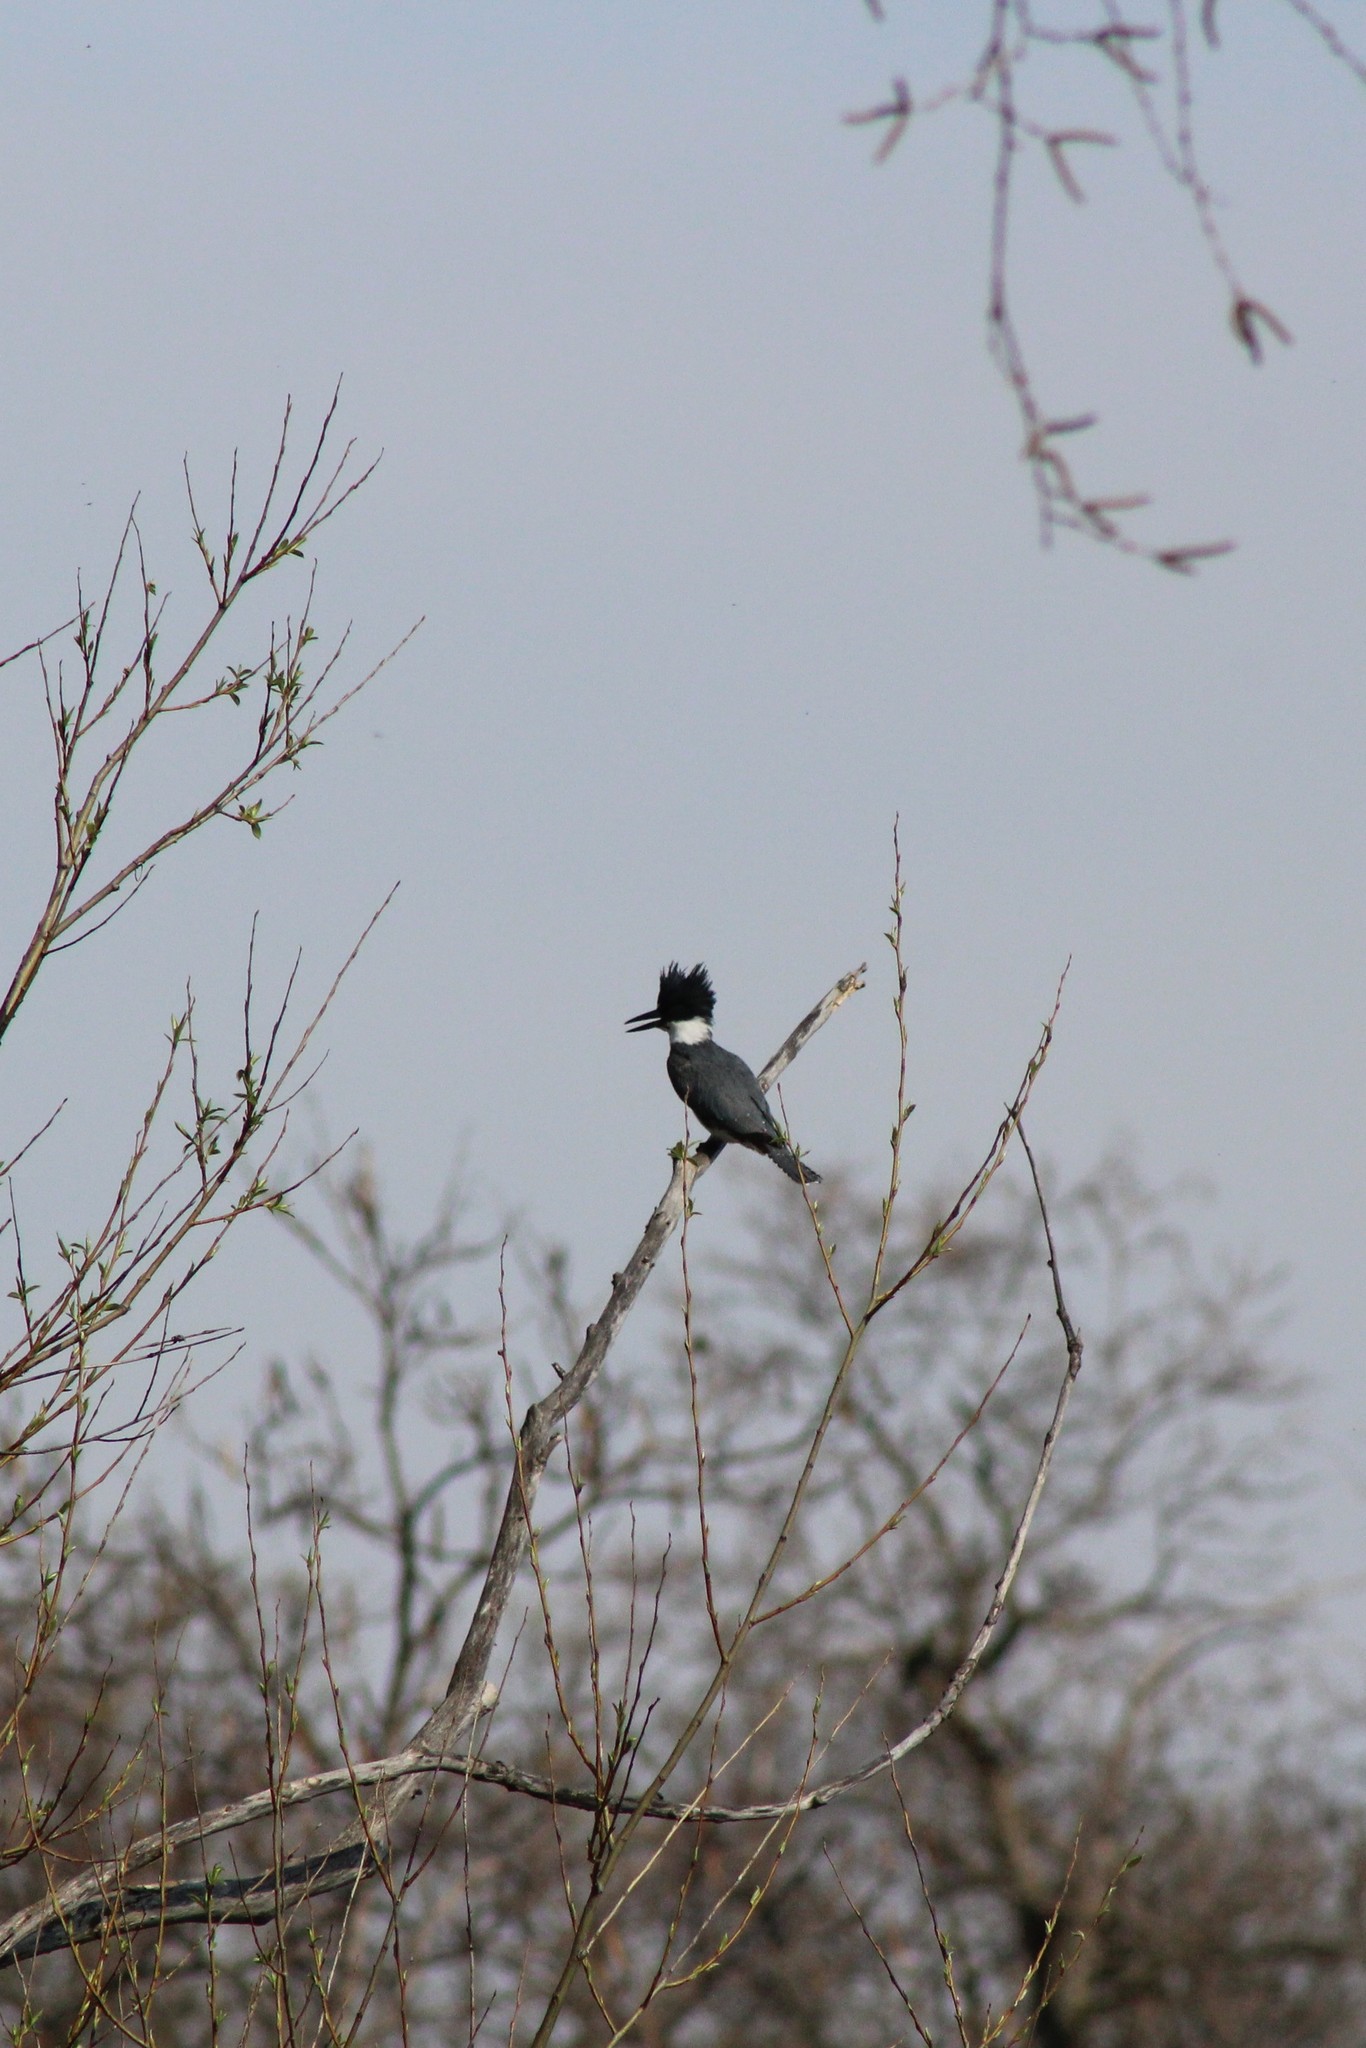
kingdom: Animalia
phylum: Chordata
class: Aves
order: Coraciiformes
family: Alcedinidae
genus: Megaceryle
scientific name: Megaceryle alcyon
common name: Belted kingfisher
